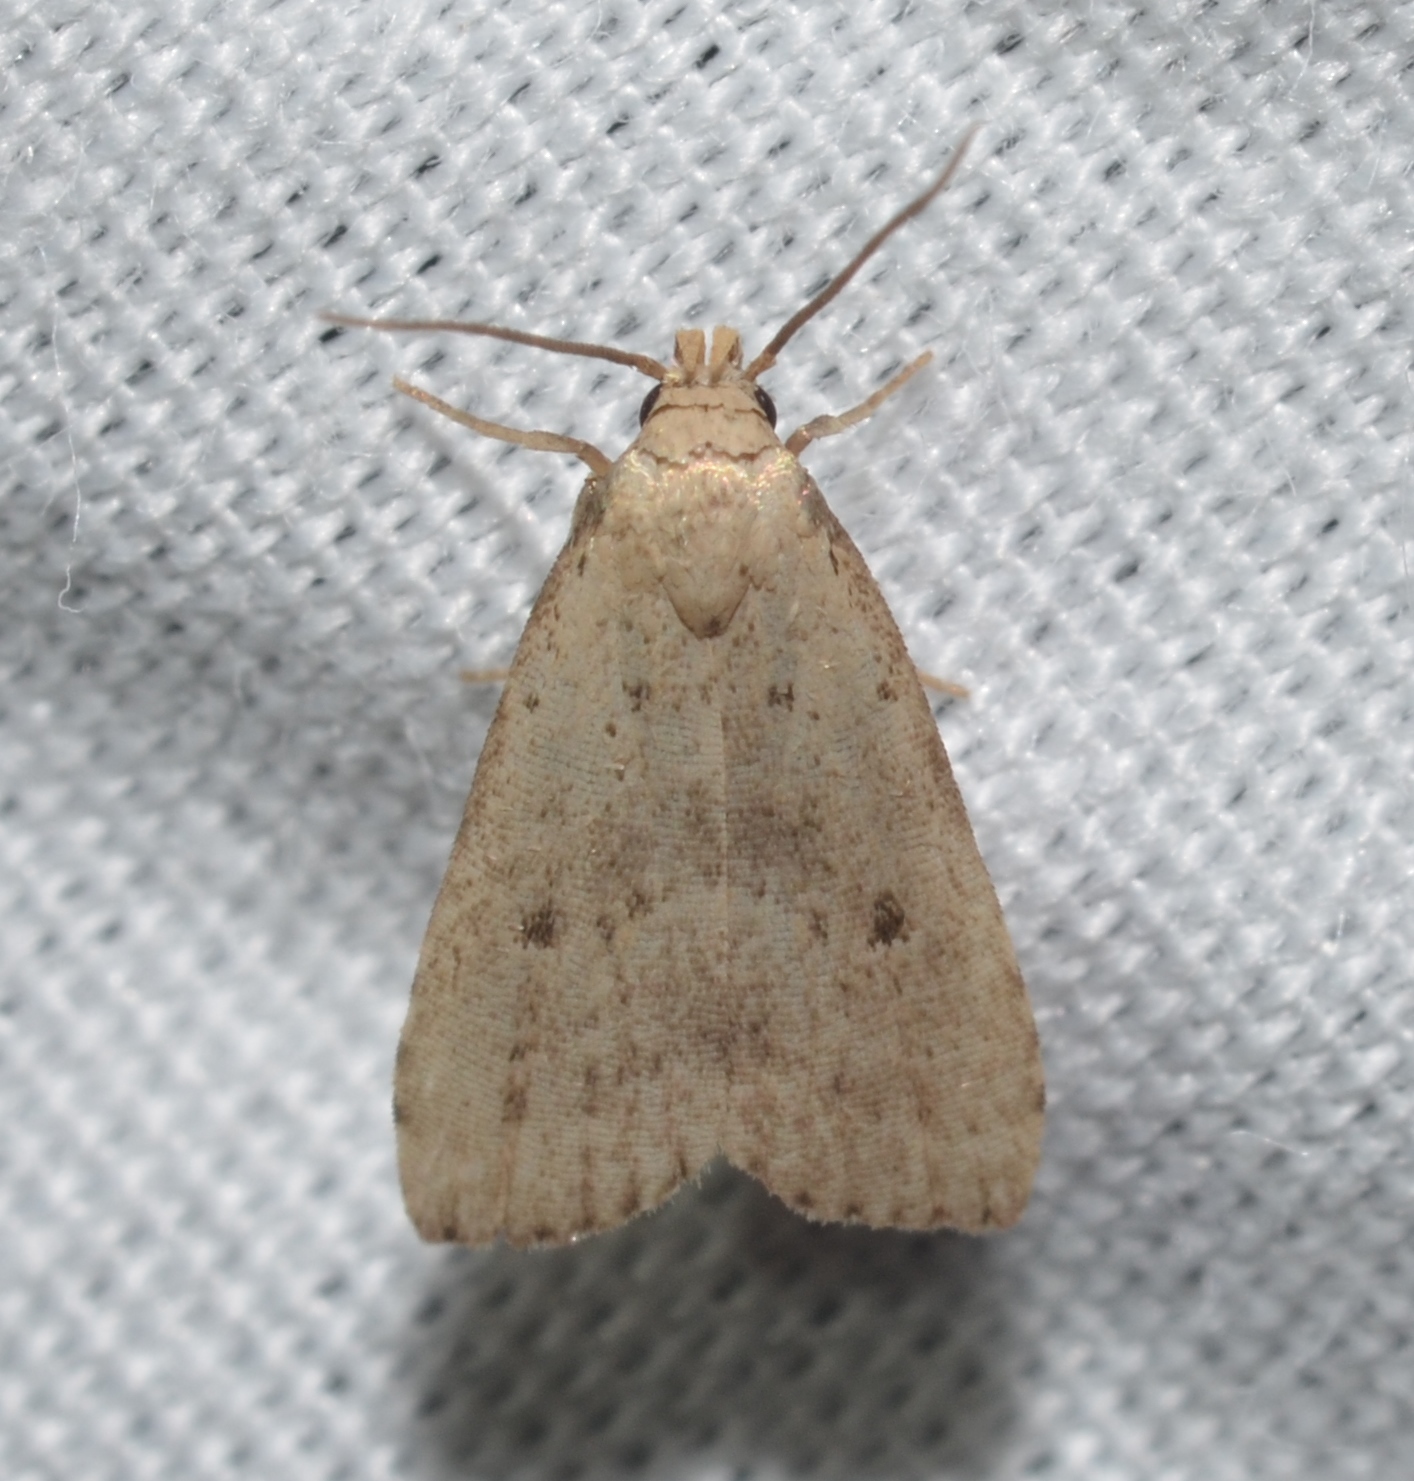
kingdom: Animalia
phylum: Arthropoda
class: Insecta
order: Lepidoptera
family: Erebidae
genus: Hypenodes
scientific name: Hypenodes fractilinea
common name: Broken-line hypenodes moth
